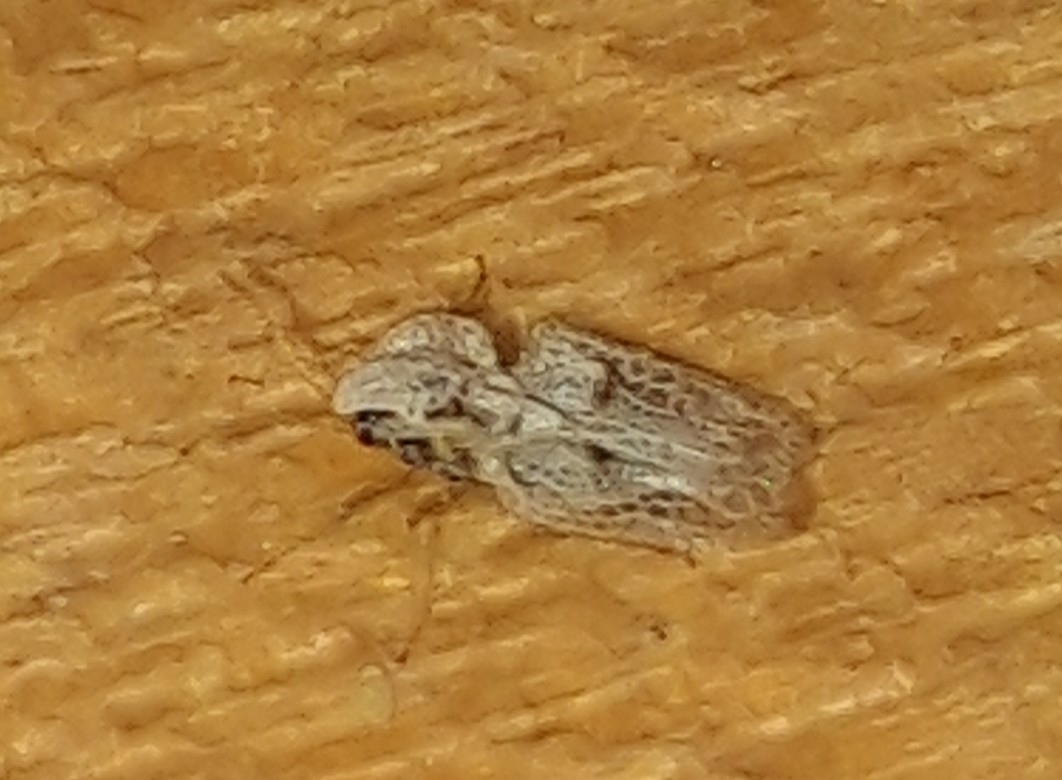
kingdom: Animalia
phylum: Arthropoda
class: Insecta
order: Hemiptera
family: Tingidae
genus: Corythucha
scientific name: Corythucha ciliata
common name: Sycamore lace bug
